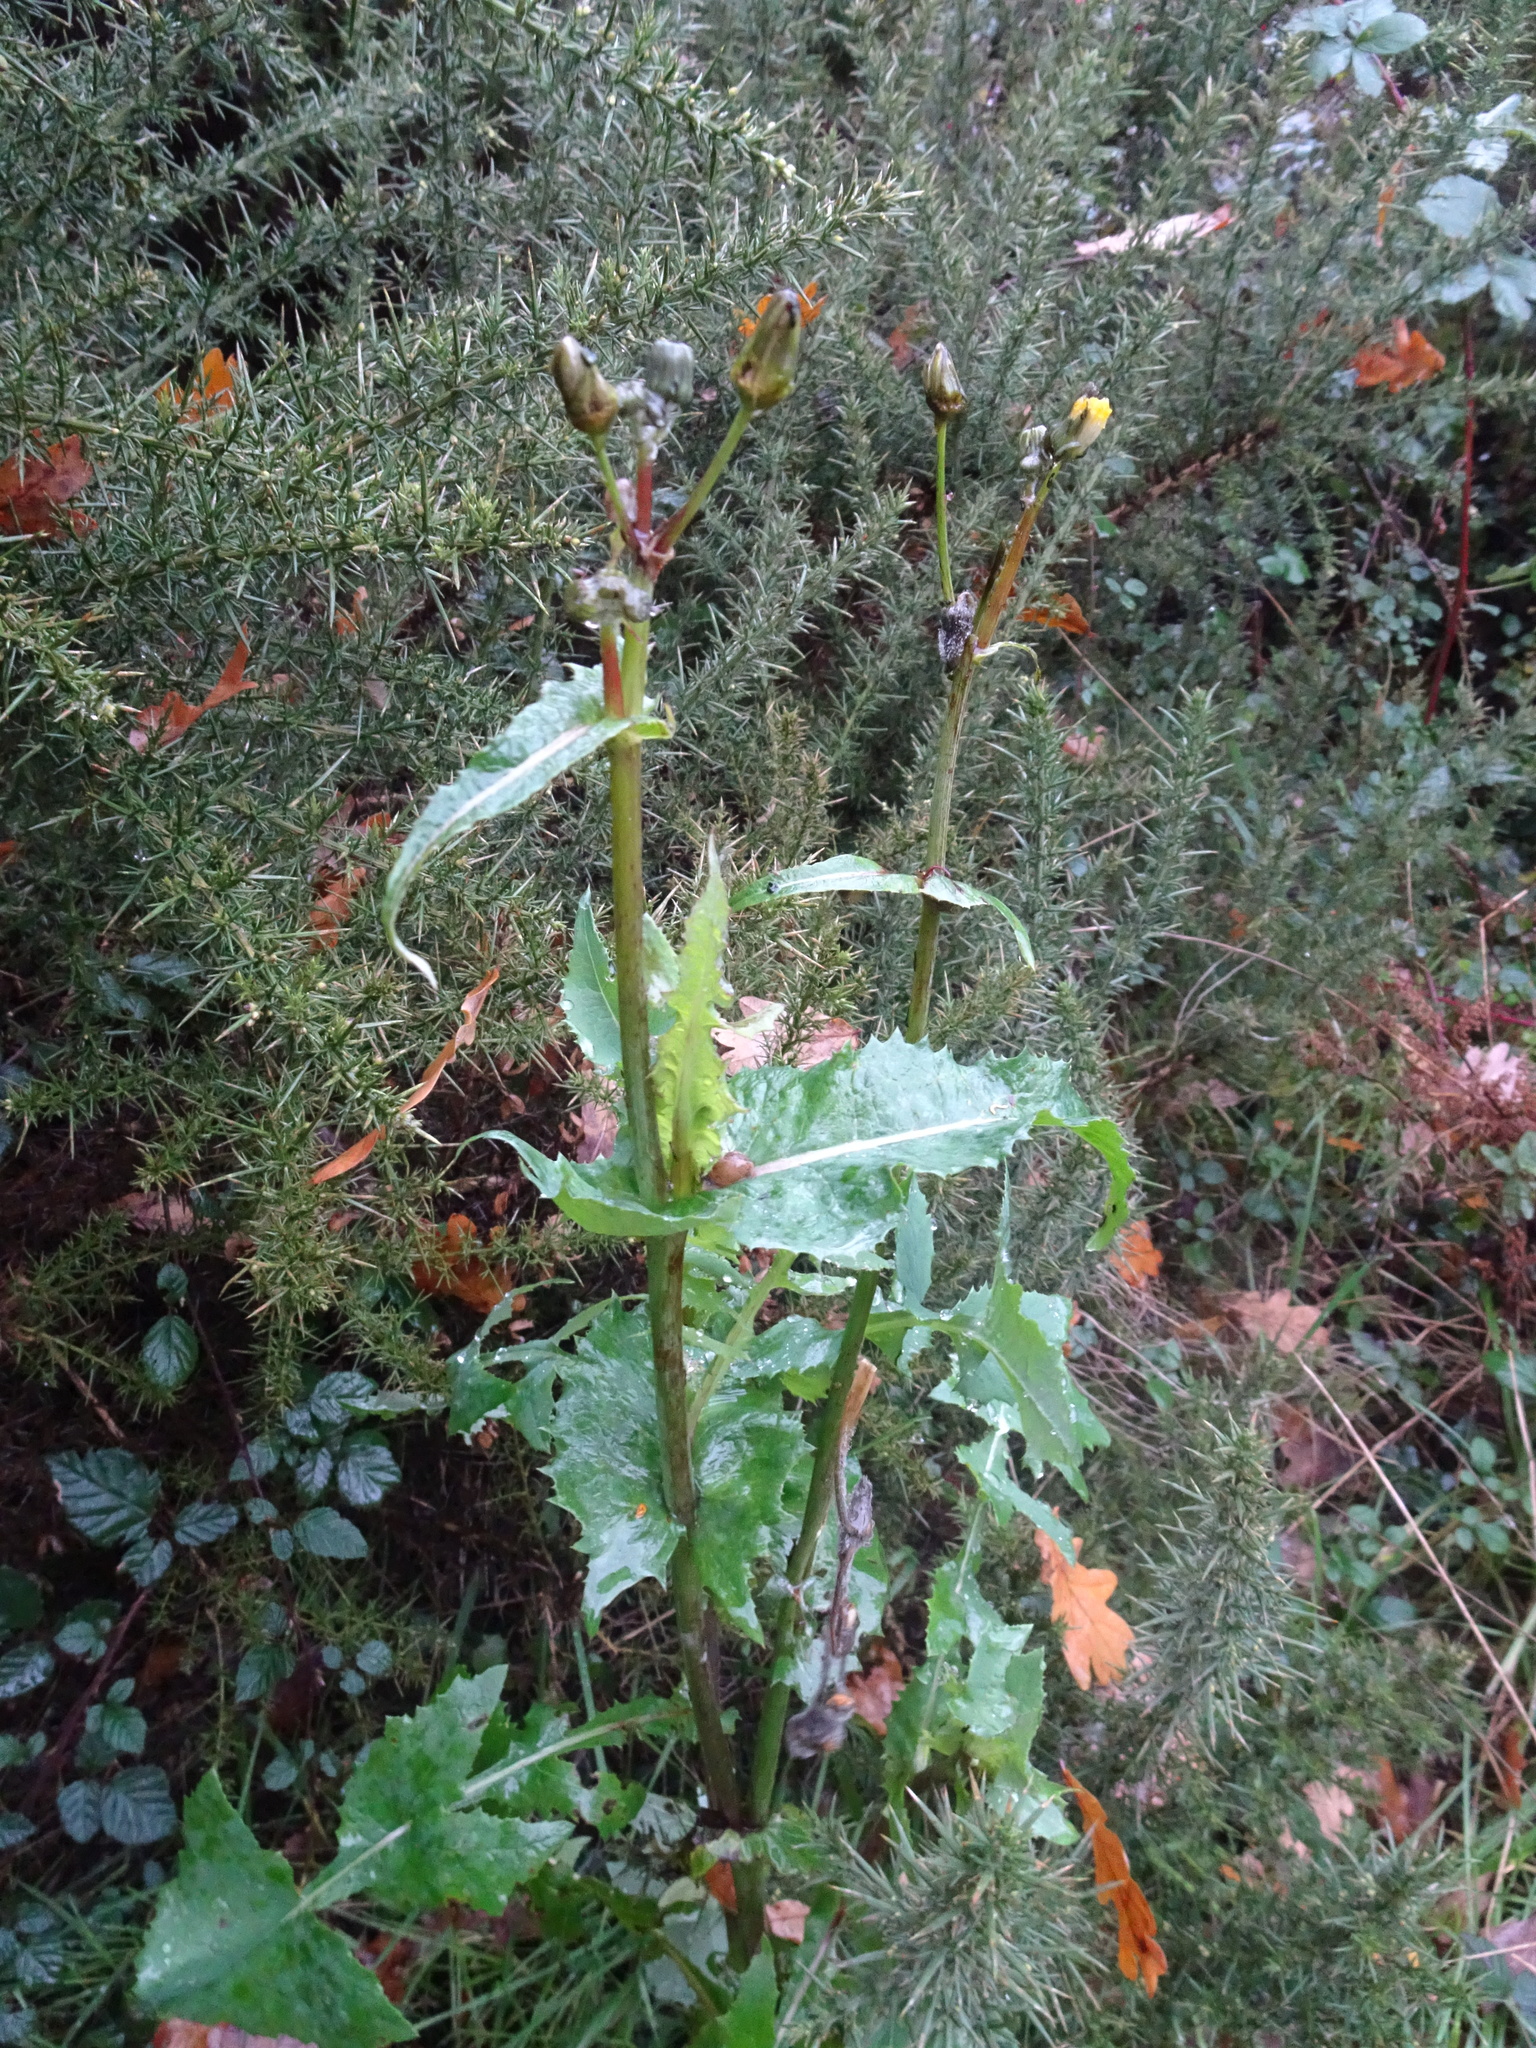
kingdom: Plantae
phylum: Tracheophyta
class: Magnoliopsida
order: Asterales
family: Asteraceae
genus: Sonchus
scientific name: Sonchus oleraceus
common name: Common sowthistle
